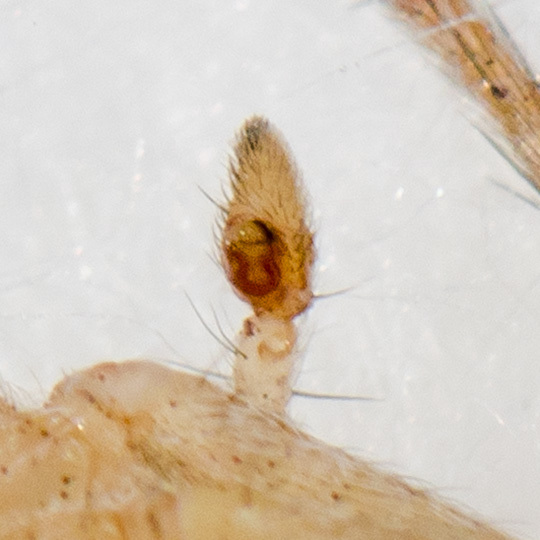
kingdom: Animalia
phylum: Arthropoda
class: Arachnida
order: Araneae
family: Philodromidae
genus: Thanatus
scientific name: Thanatus oblongiusculus
